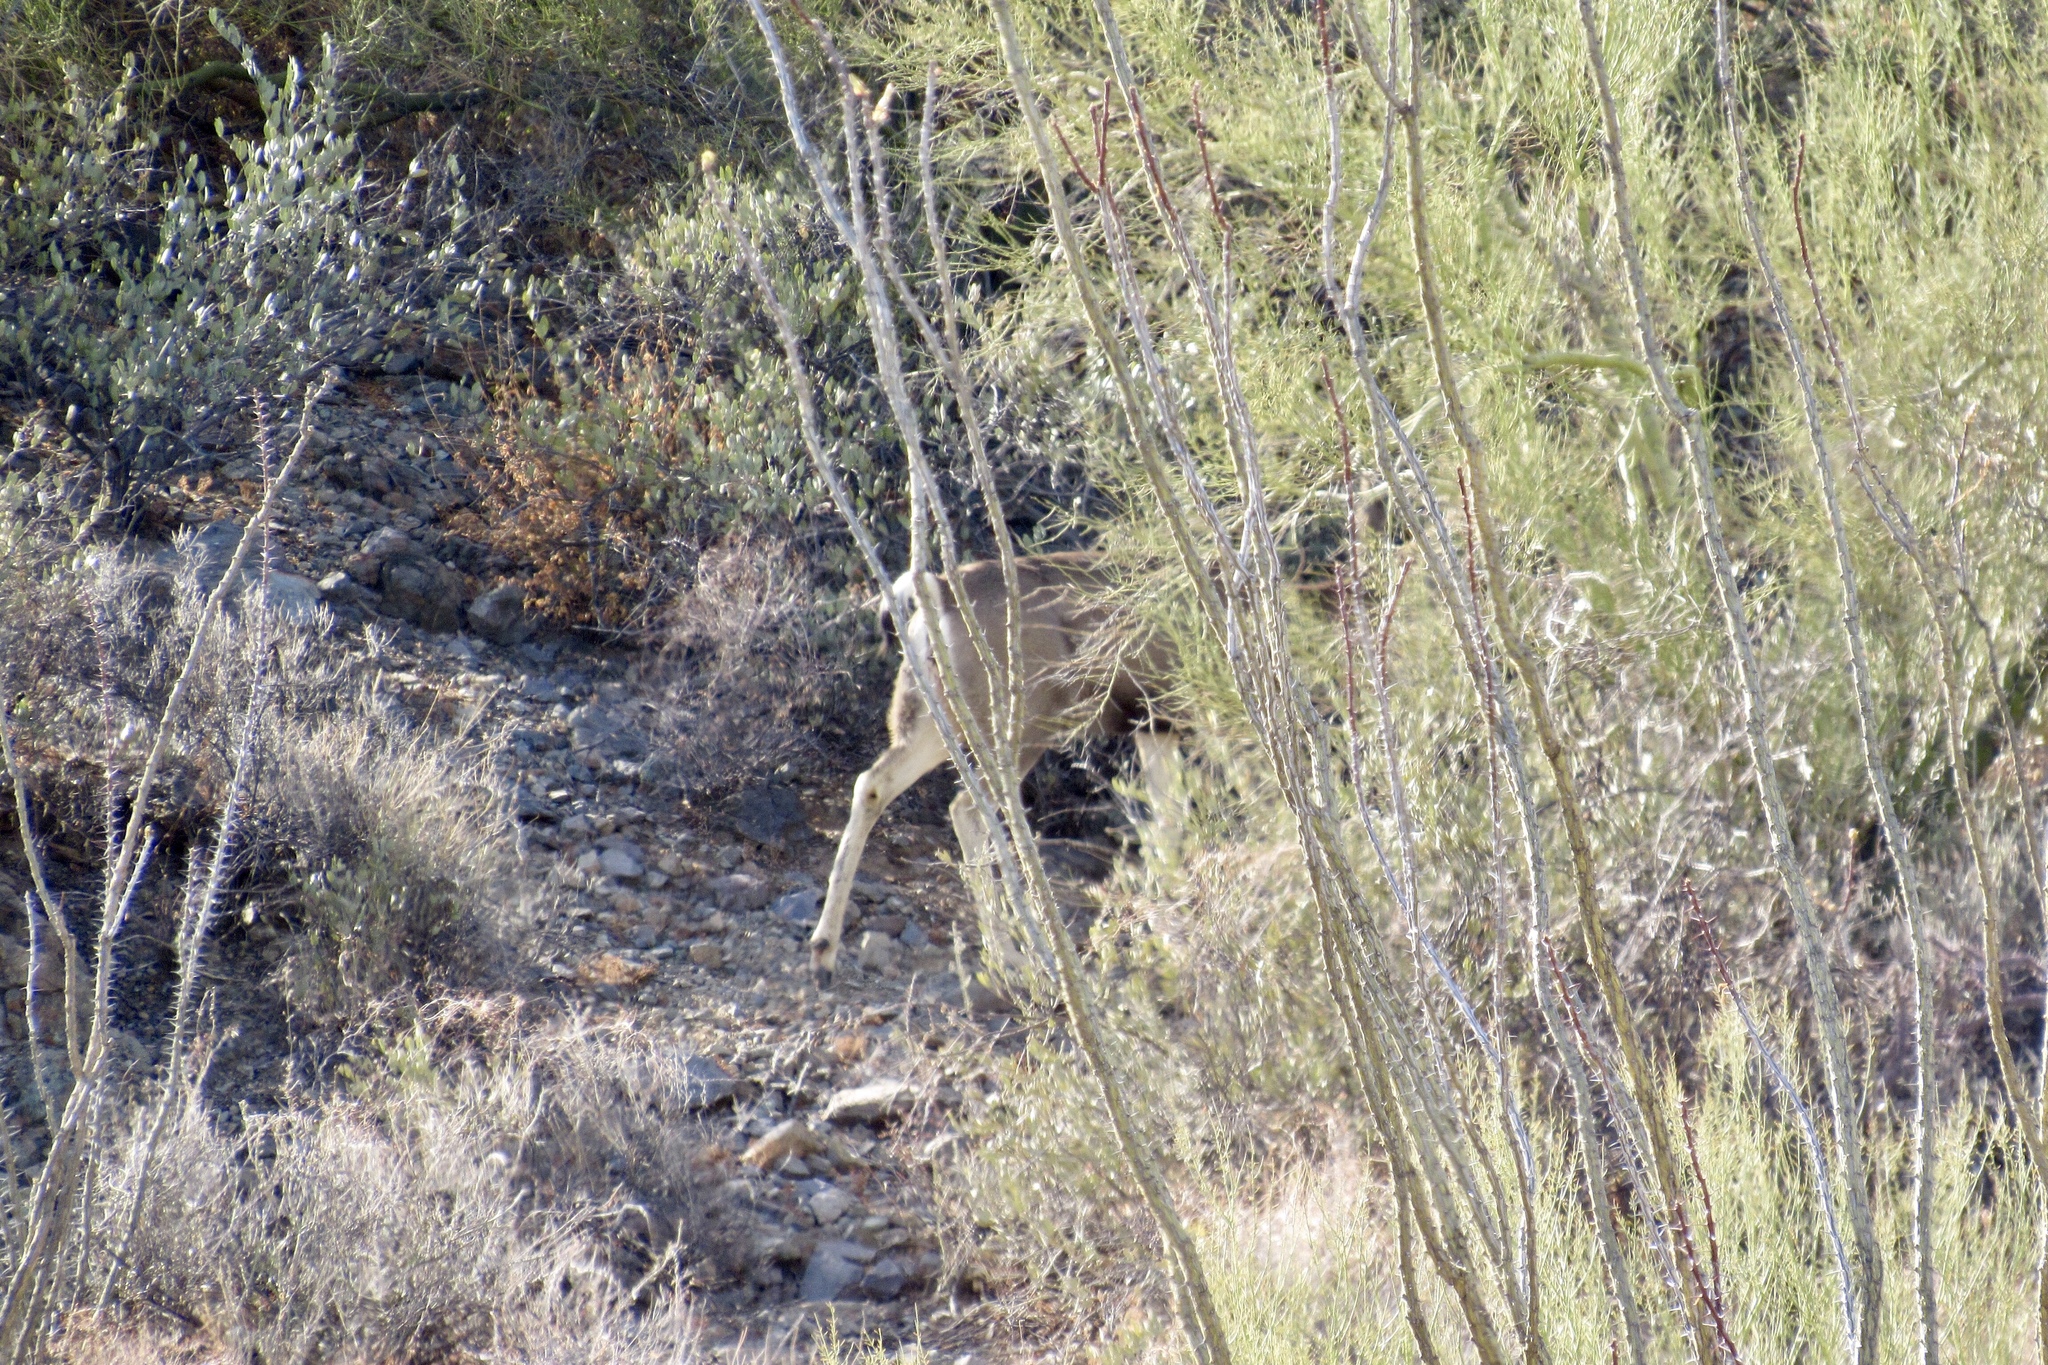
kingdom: Animalia
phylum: Chordata
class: Mammalia
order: Artiodactyla
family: Cervidae
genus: Odocoileus
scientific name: Odocoileus hemionus
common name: Mule deer
